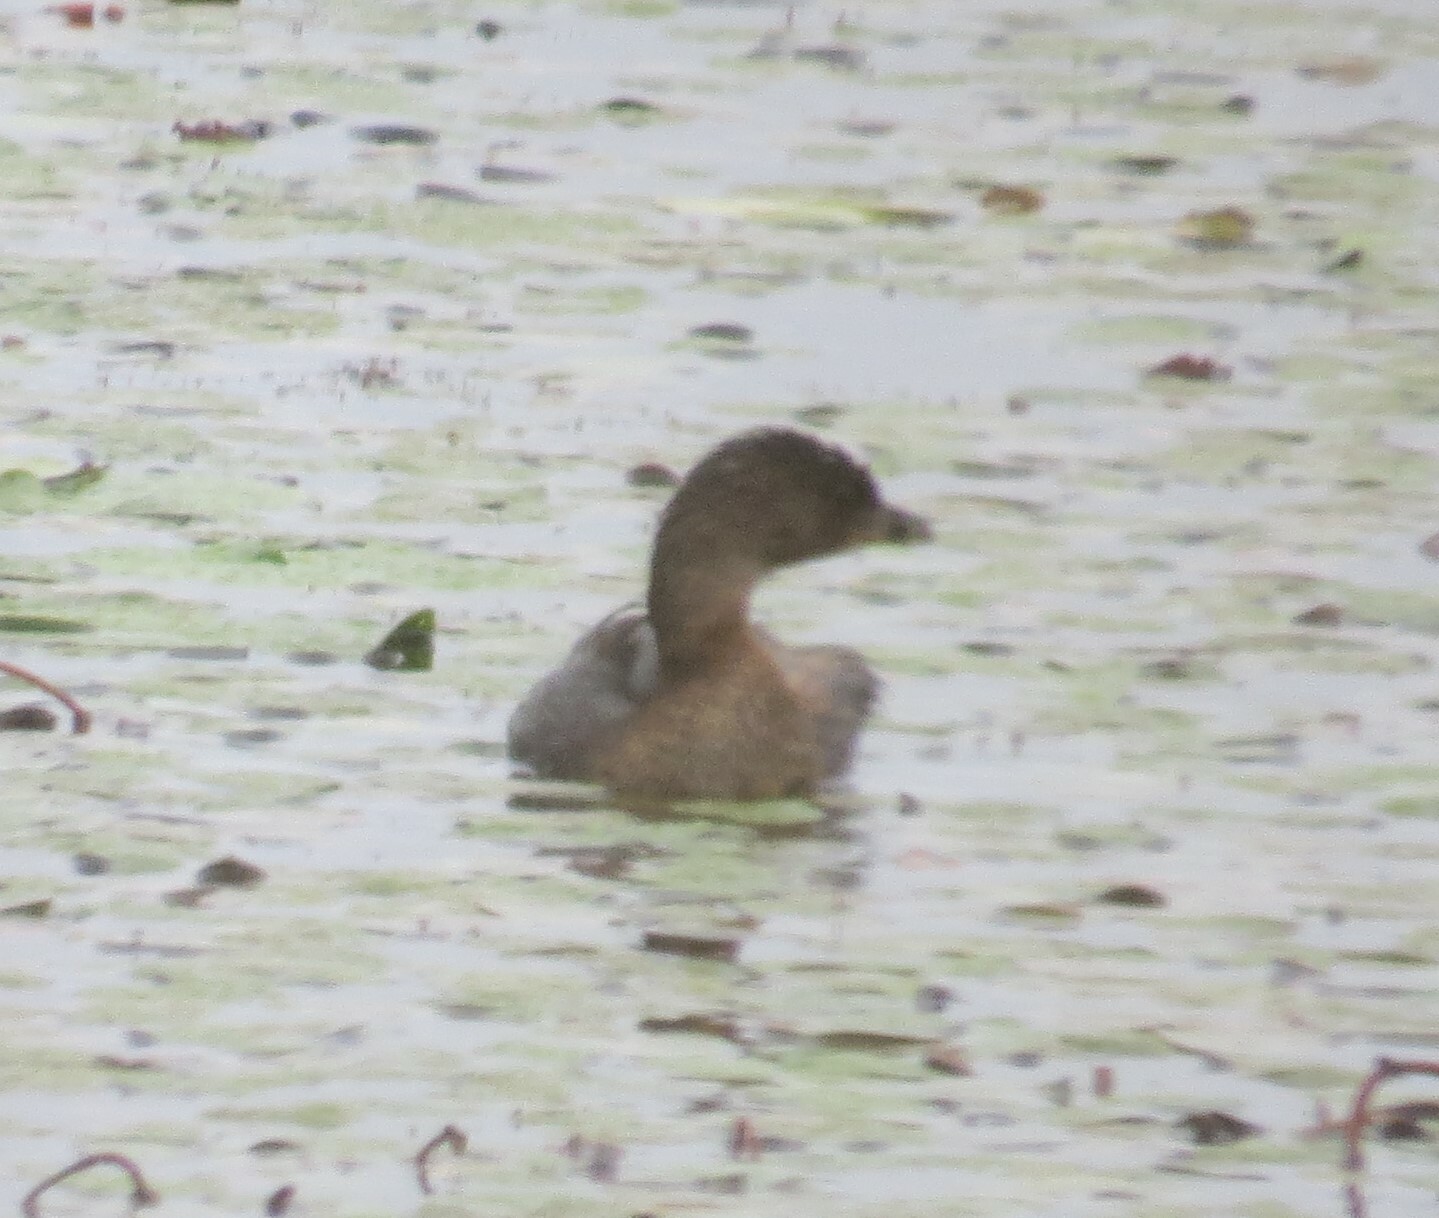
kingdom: Animalia
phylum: Chordata
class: Aves
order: Podicipediformes
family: Podicipedidae
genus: Podilymbus
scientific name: Podilymbus podiceps
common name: Pied-billed grebe
